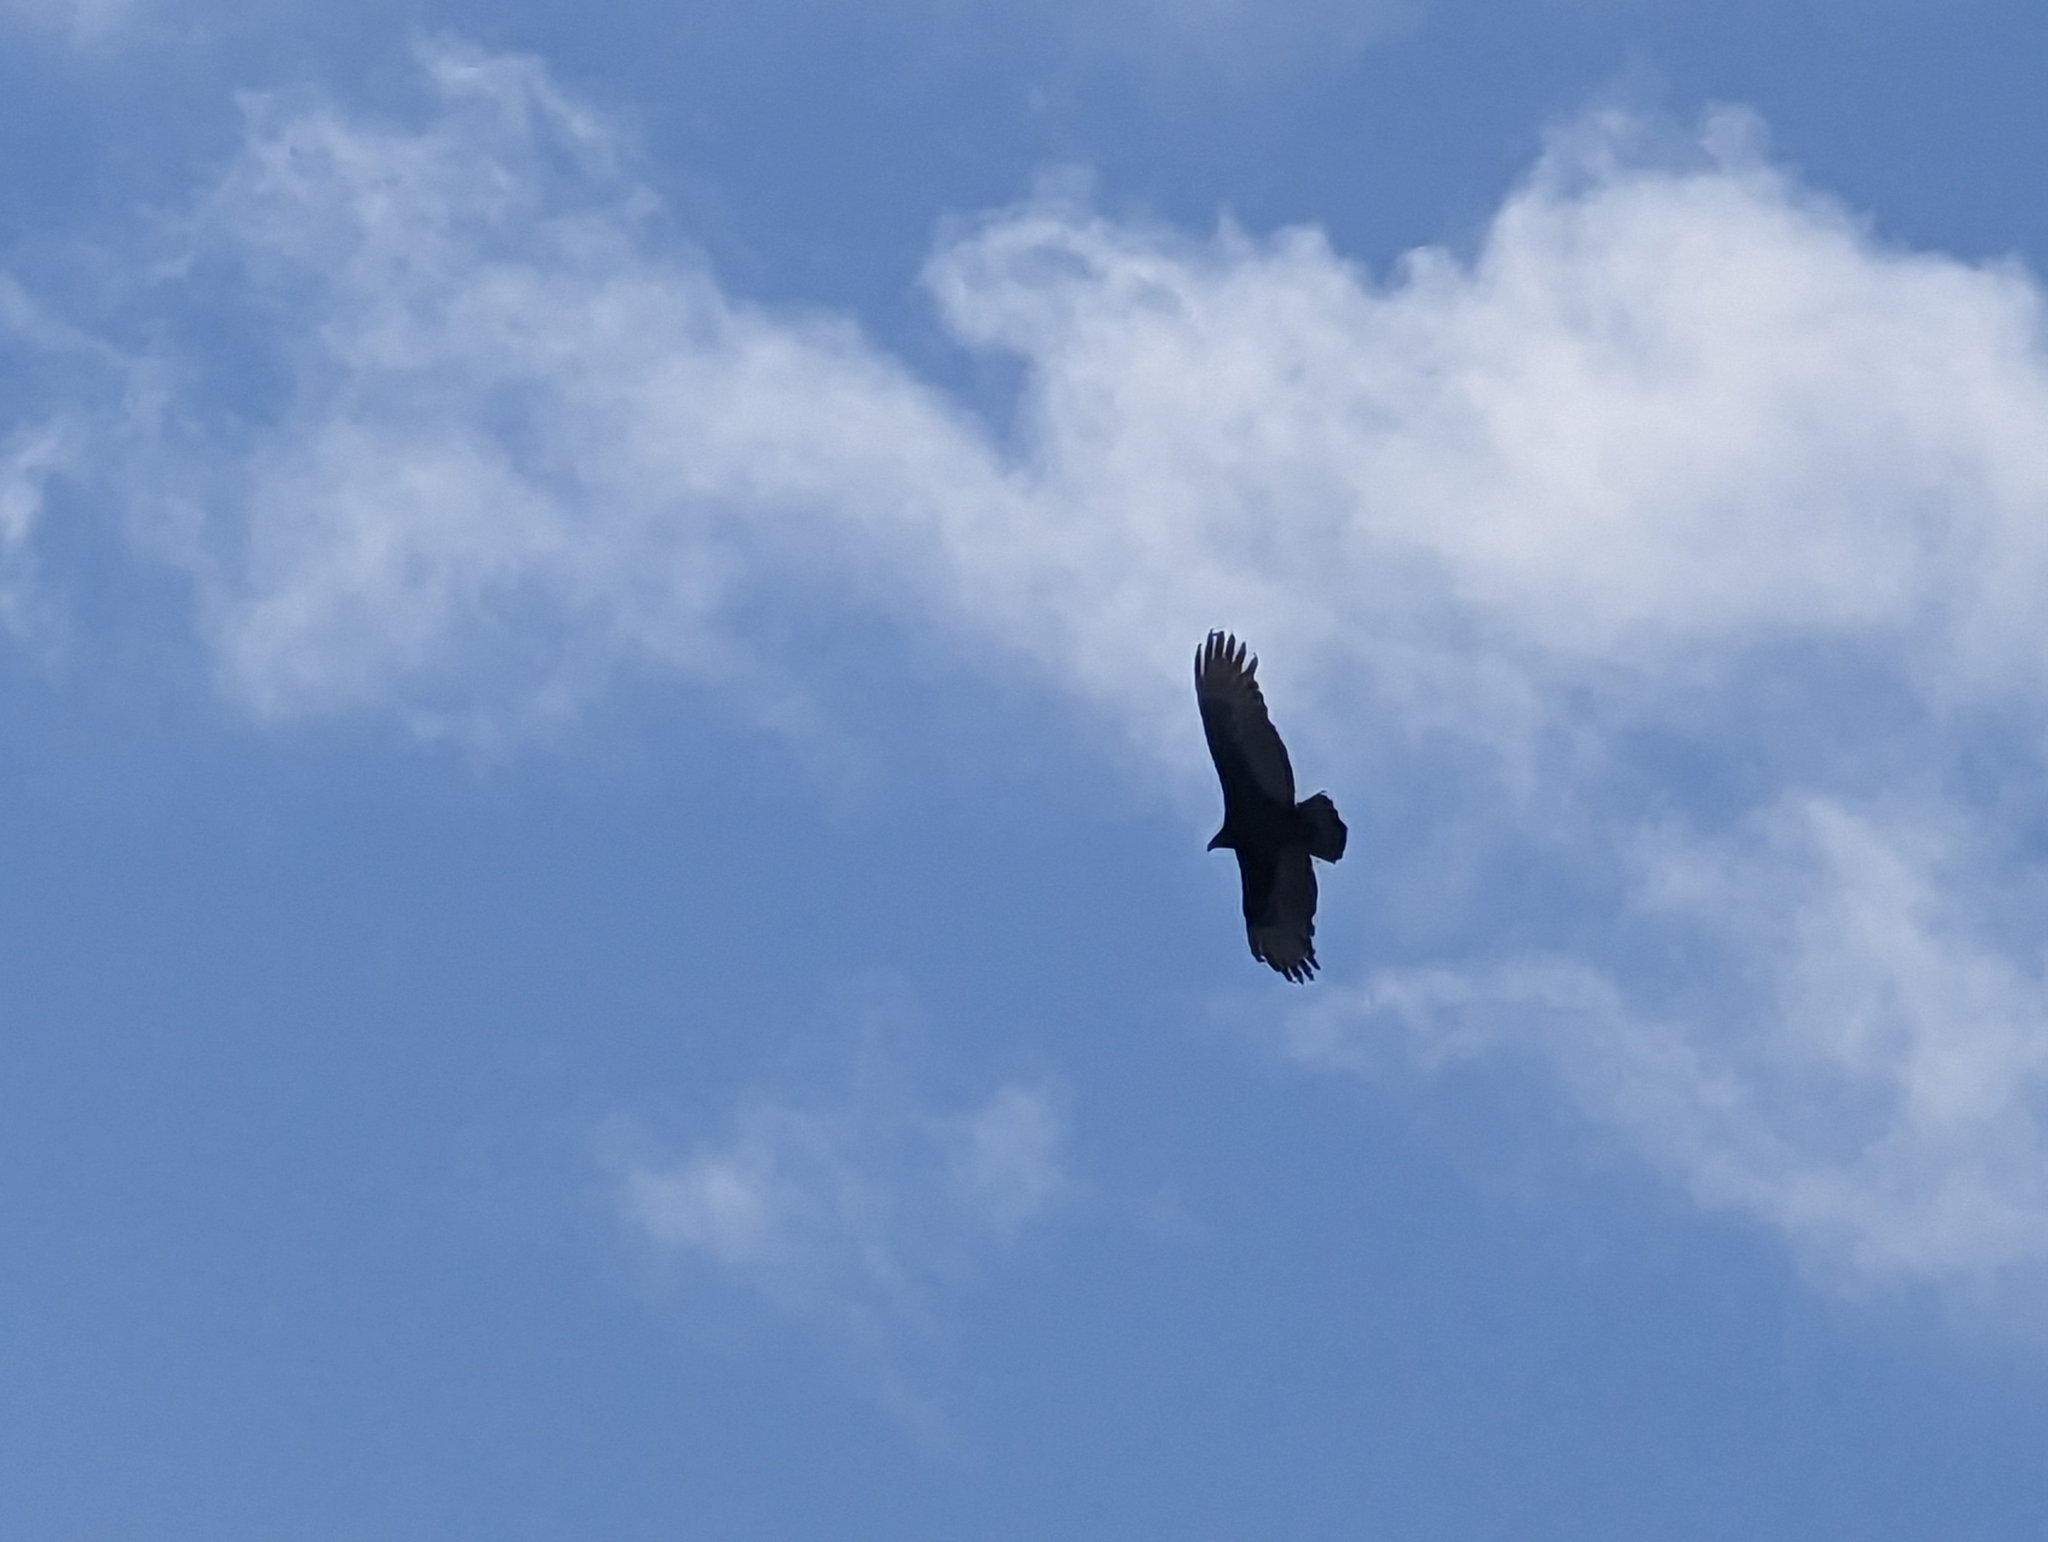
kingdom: Animalia
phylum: Chordata
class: Aves
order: Accipitriformes
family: Cathartidae
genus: Cathartes
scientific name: Cathartes aura
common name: Turkey vulture
